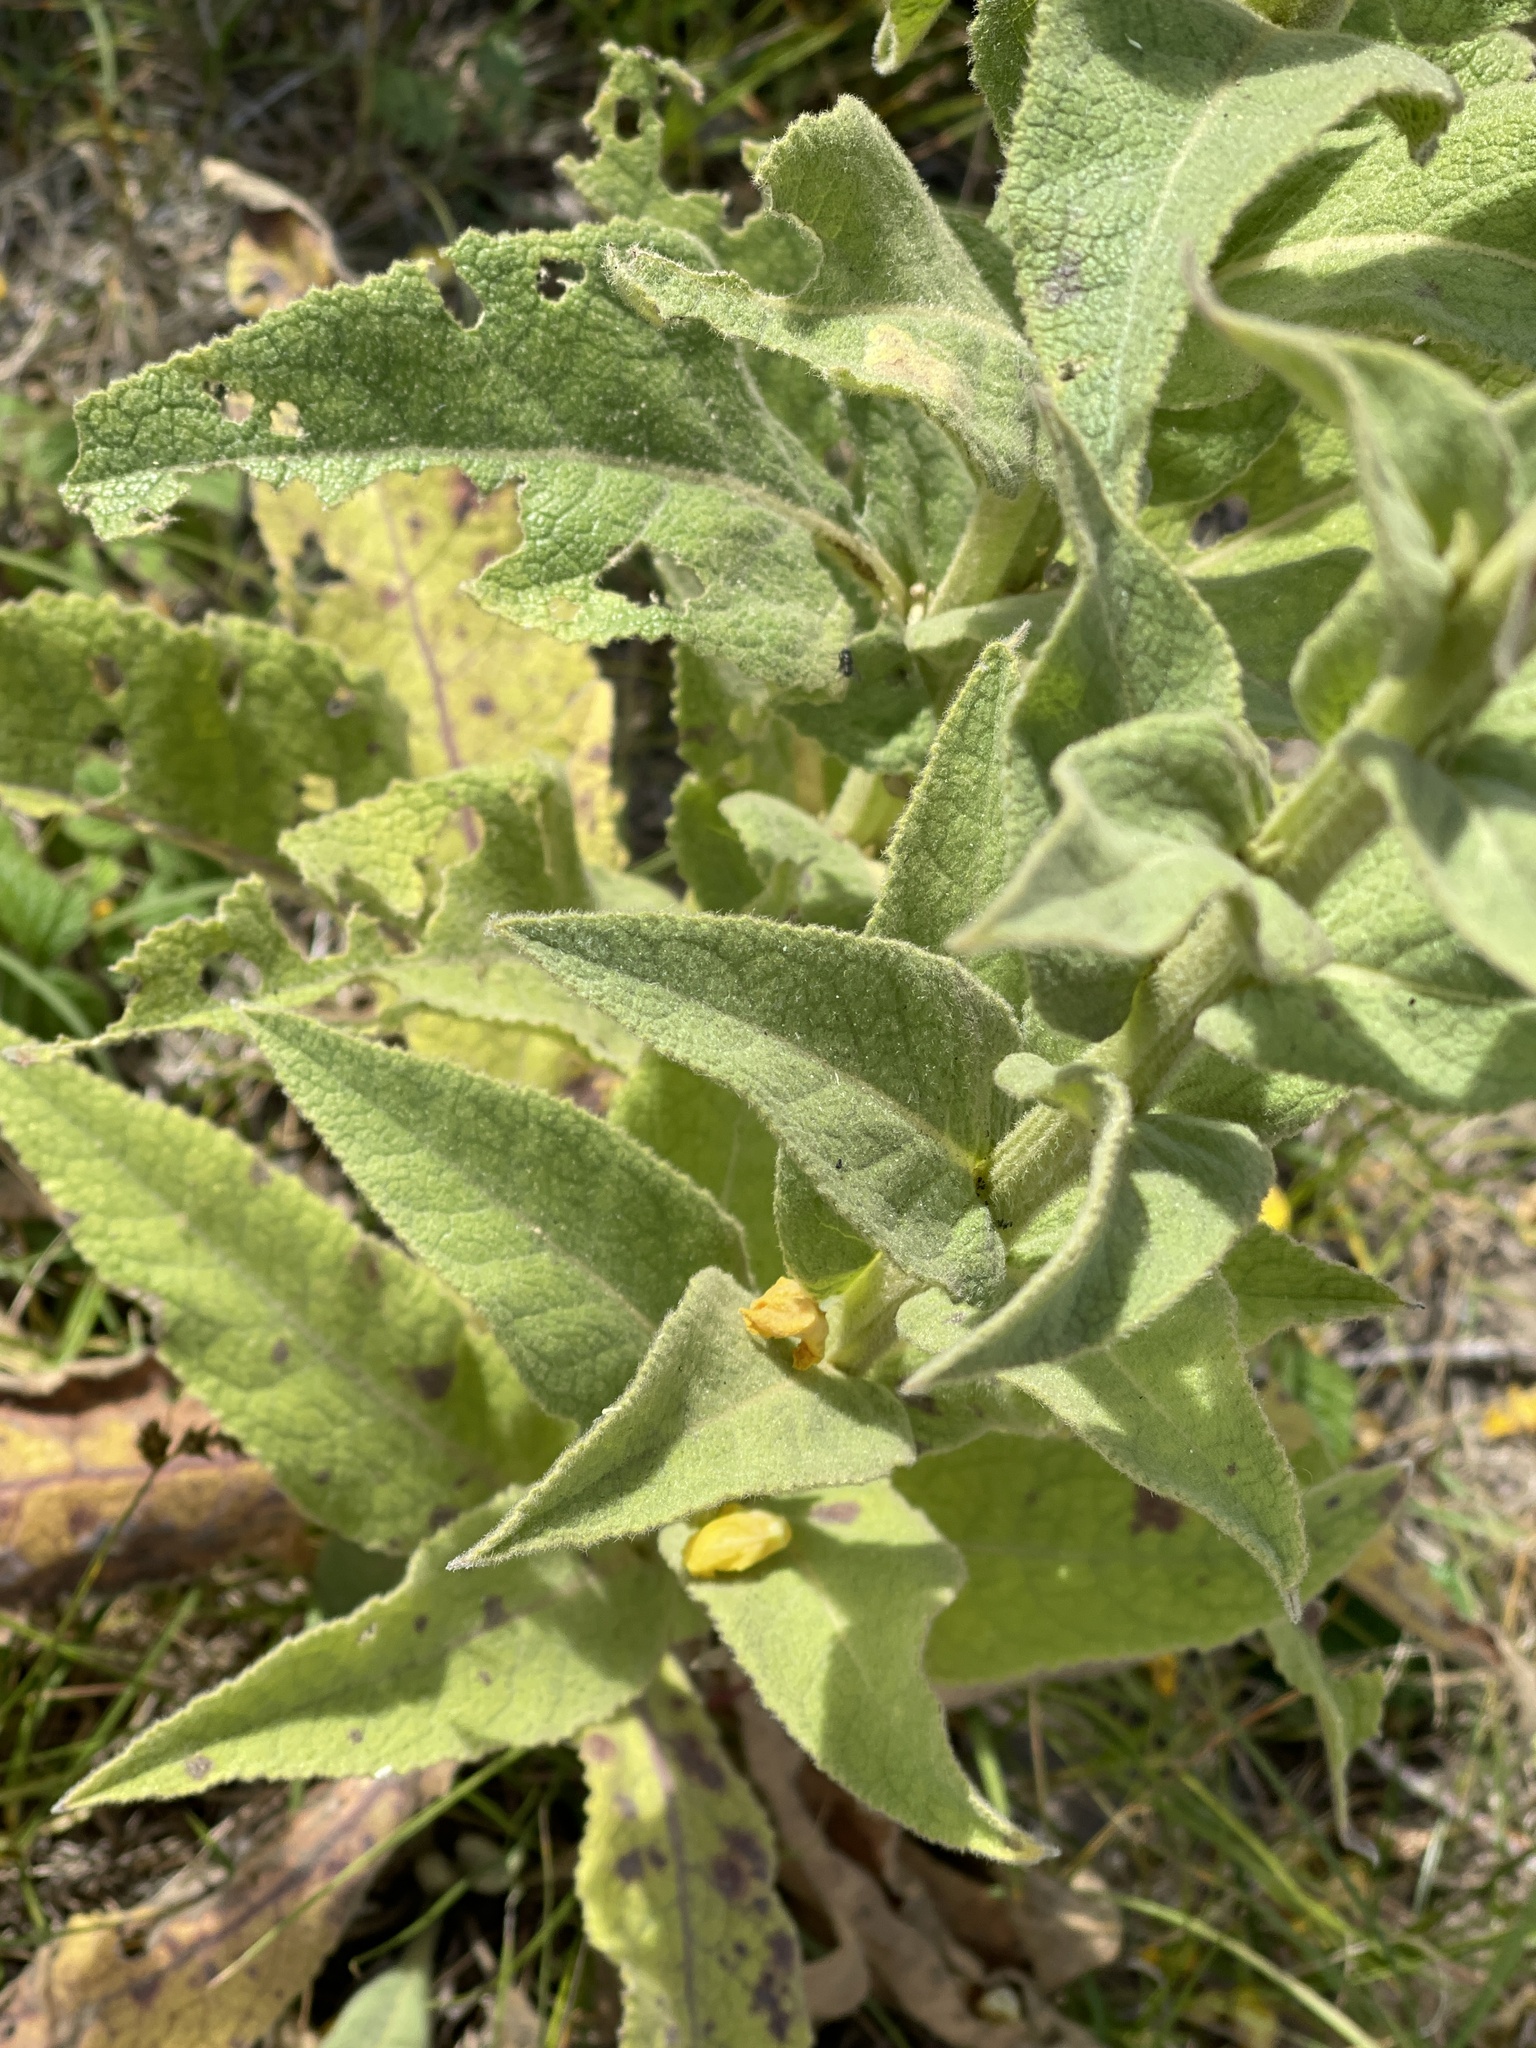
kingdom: Plantae
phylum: Tracheophyta
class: Magnoliopsida
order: Lamiales
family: Scrophulariaceae
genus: Verbascum
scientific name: Verbascum phlomoides
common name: Orange mullein
